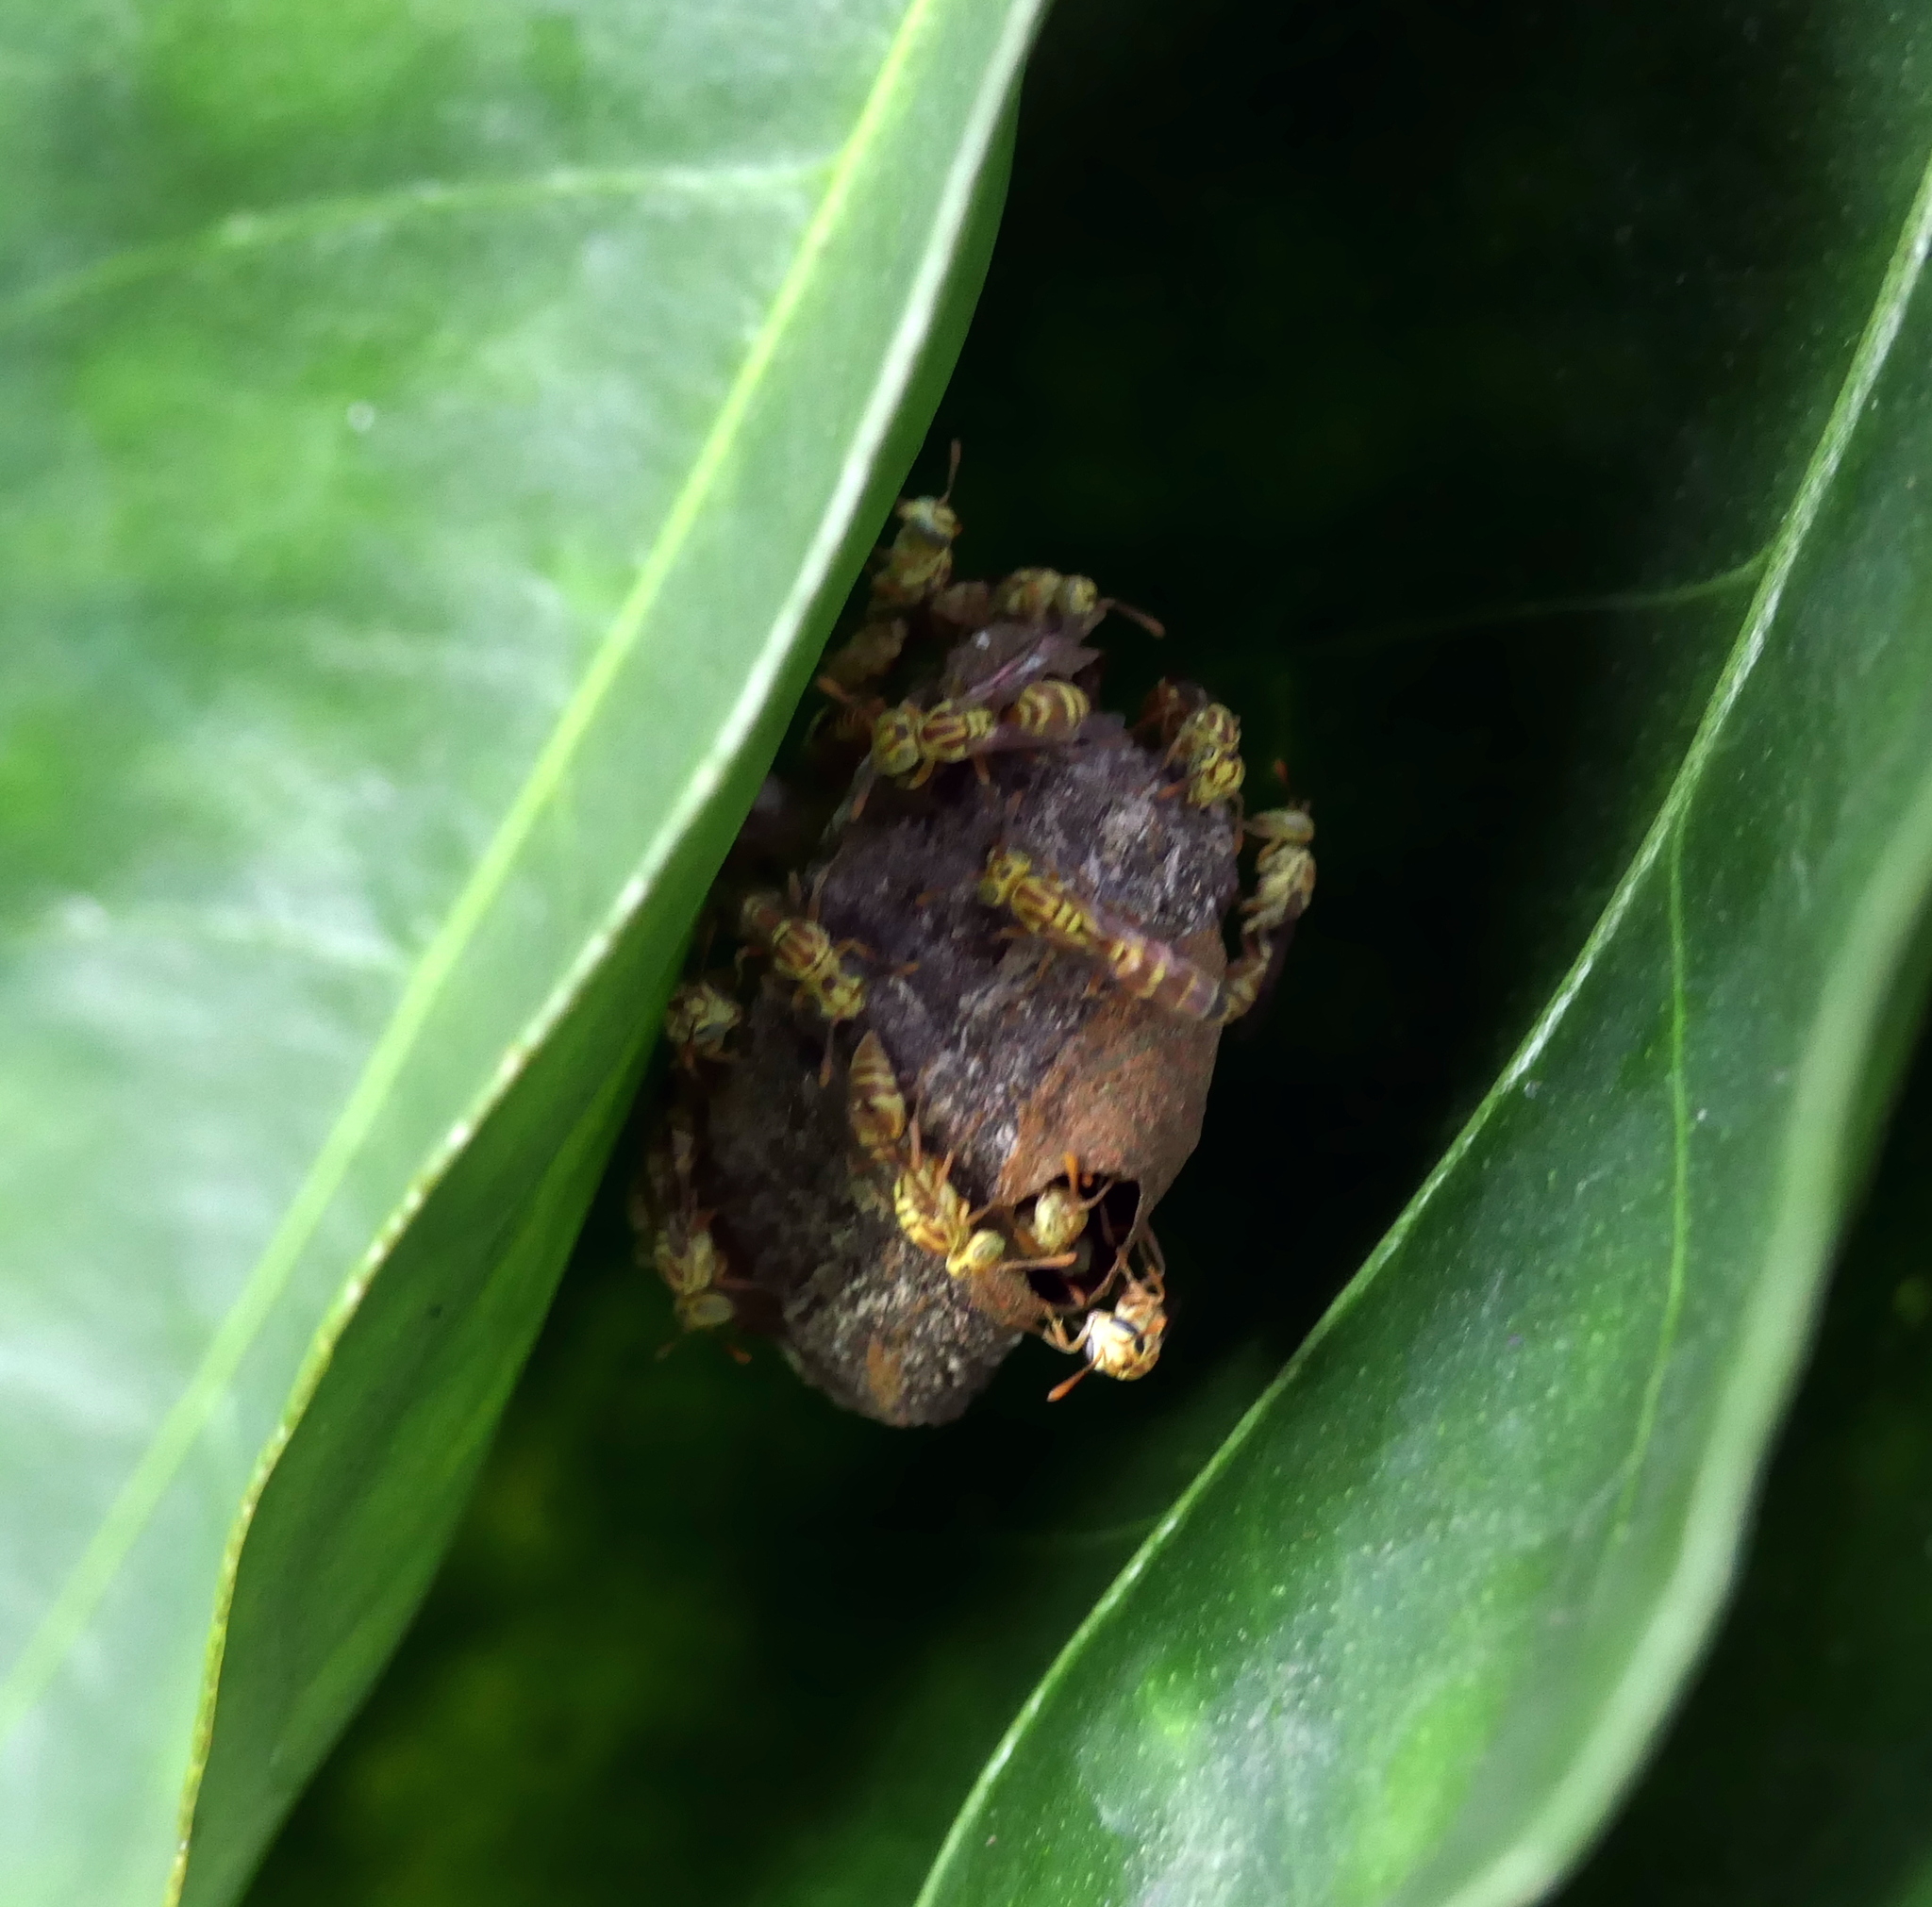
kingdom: Animalia
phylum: Arthropoda
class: Insecta
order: Hymenoptera
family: Vespidae
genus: Protopolybia
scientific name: Protopolybia potiguara
